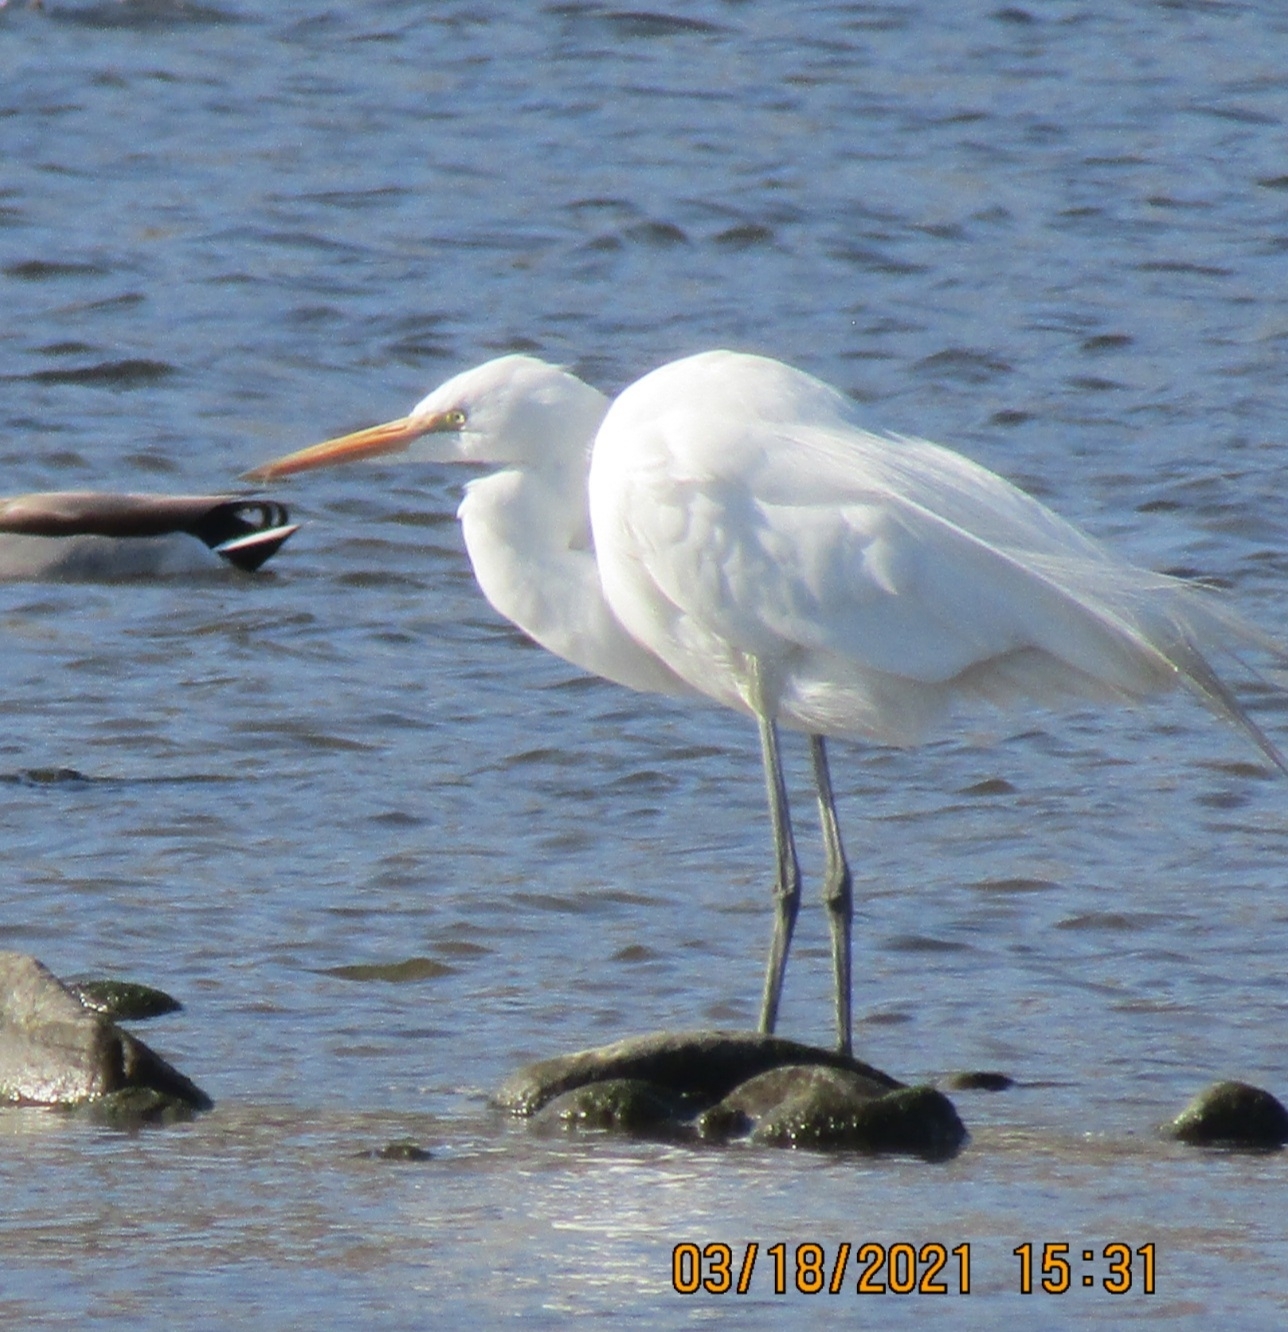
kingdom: Animalia
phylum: Chordata
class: Aves
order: Pelecaniformes
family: Ardeidae
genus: Ardea
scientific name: Ardea alba
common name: Great egret
